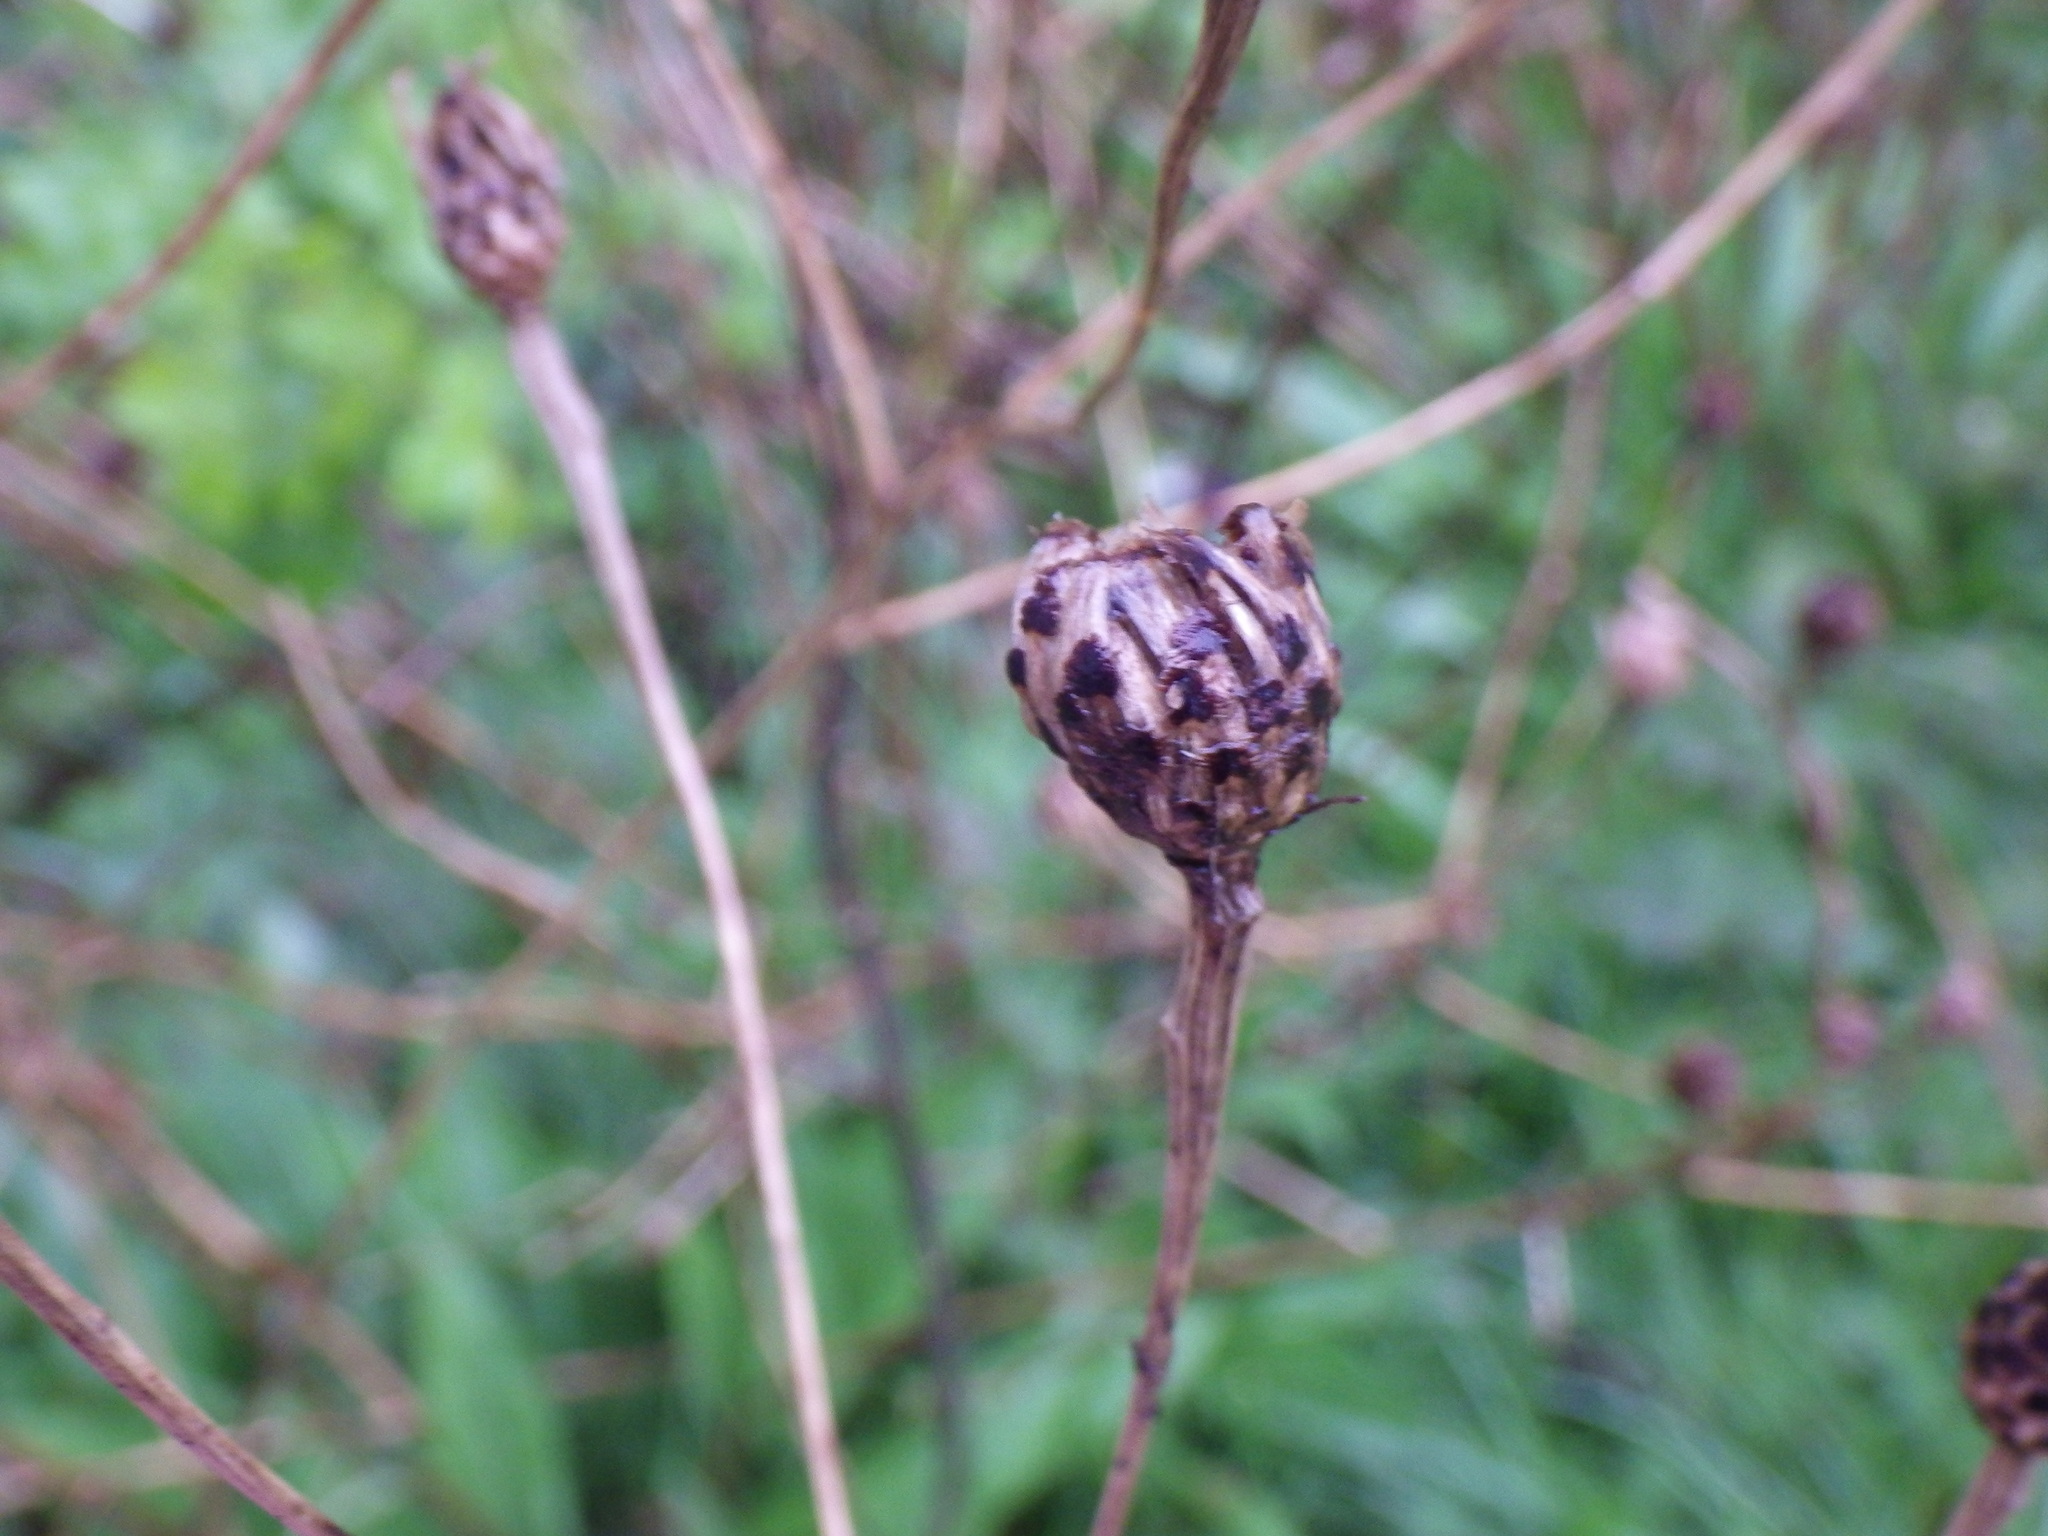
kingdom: Plantae
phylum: Tracheophyta
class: Magnoliopsida
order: Asterales
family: Asteraceae
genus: Centaurea
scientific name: Centaurea nigra
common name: Lesser knapweed
